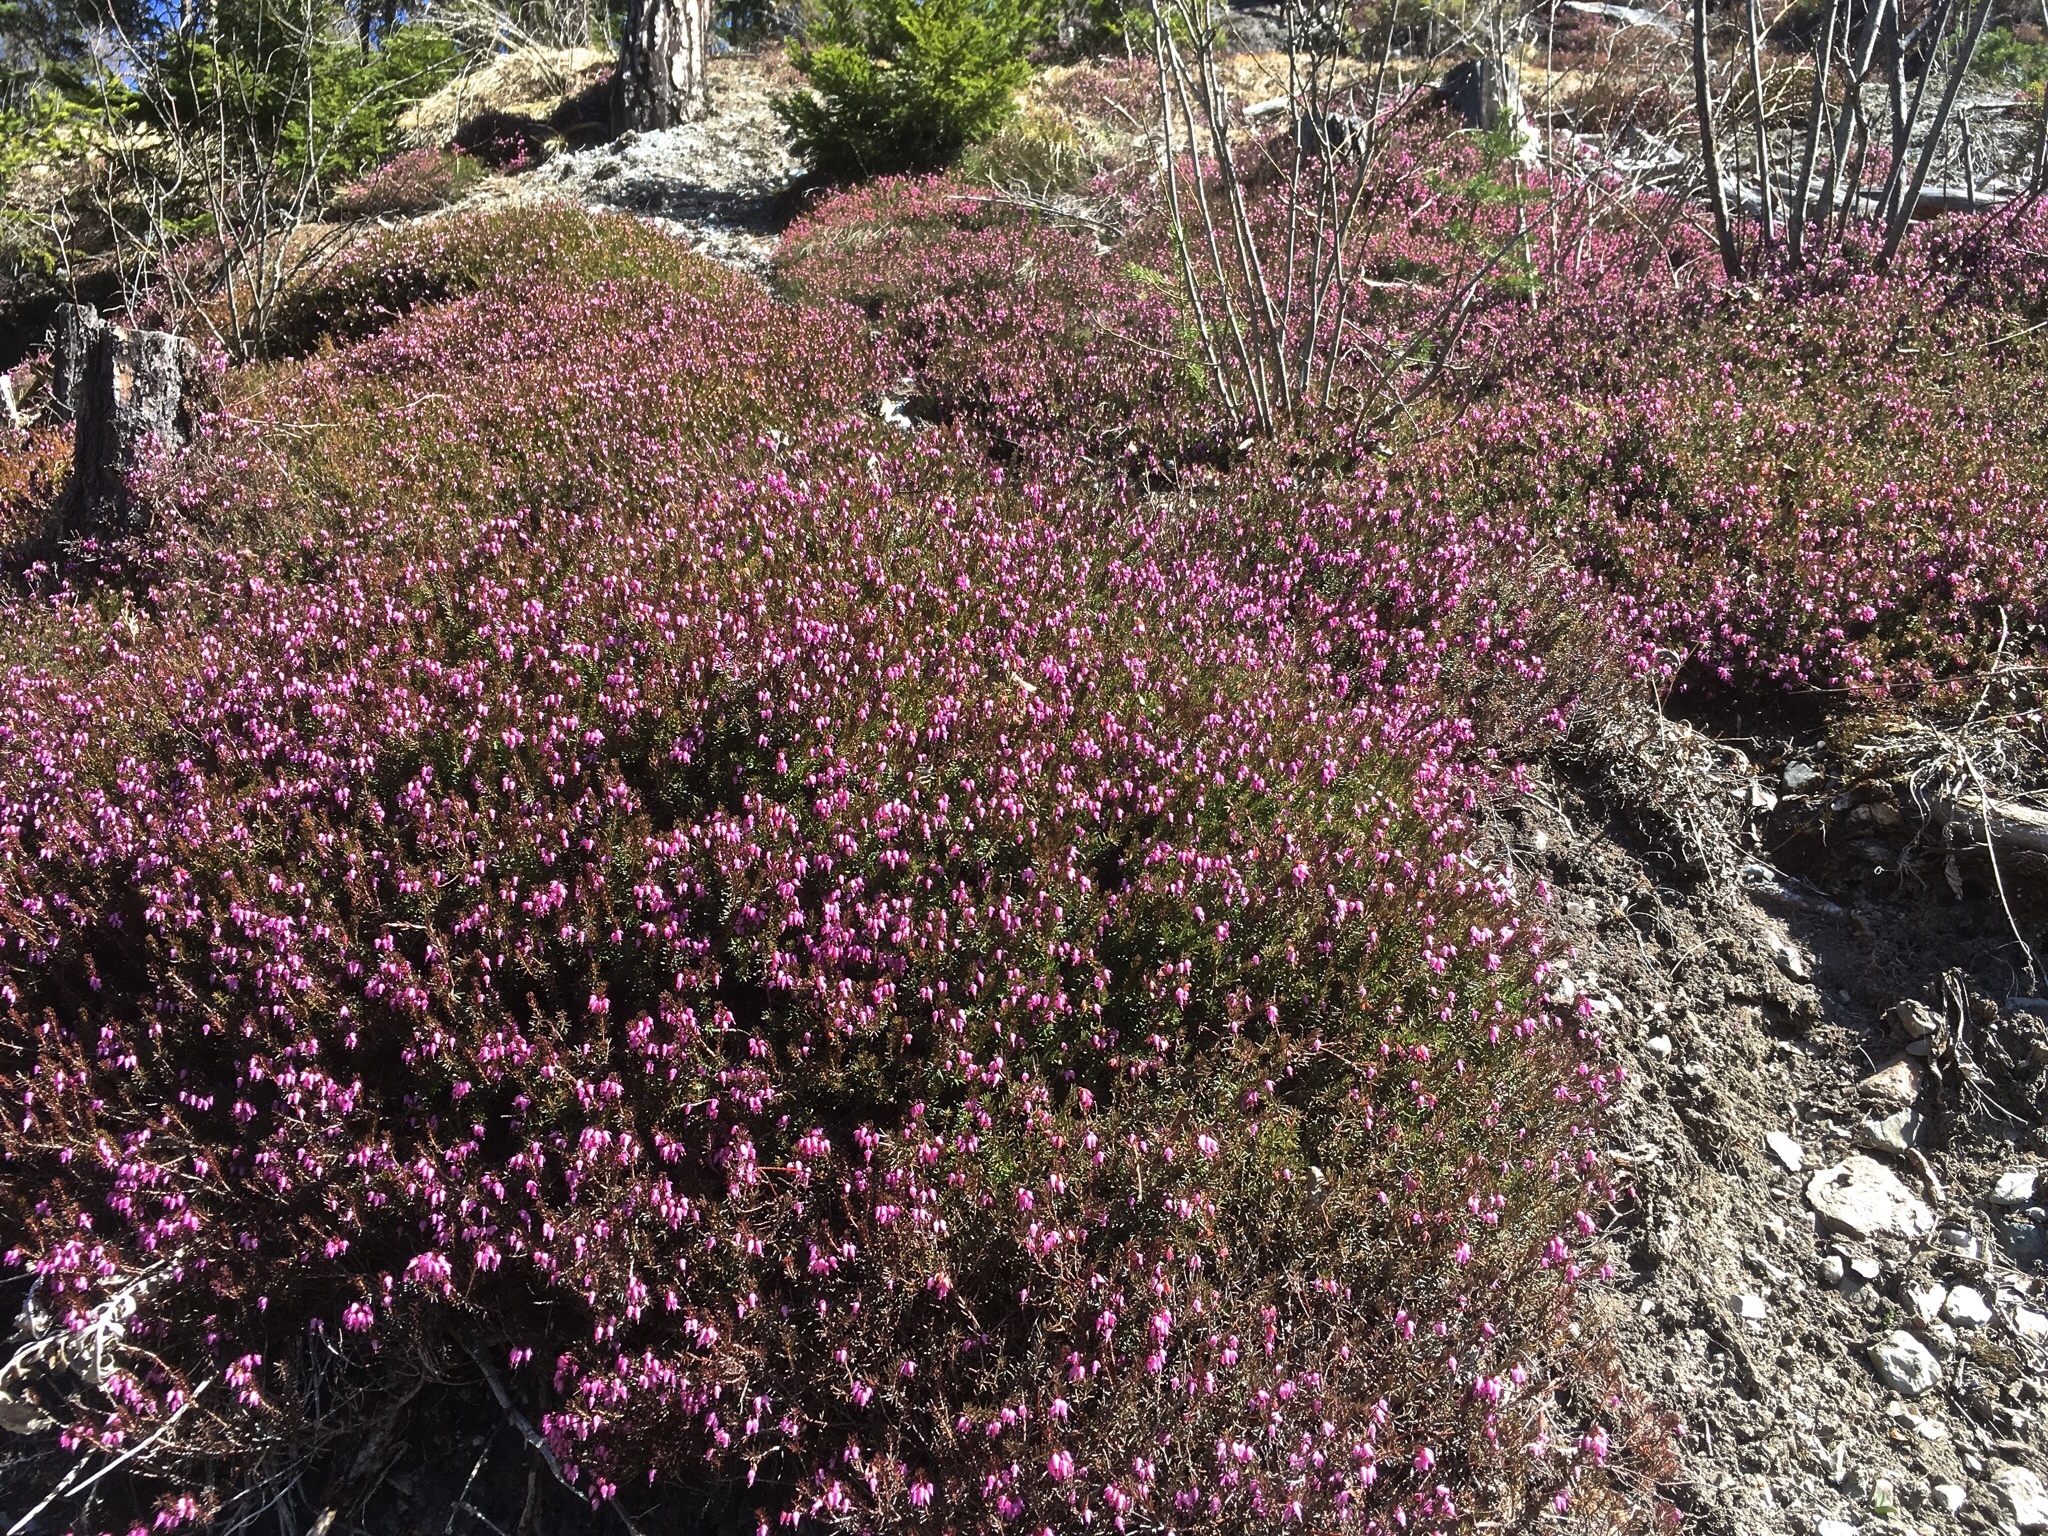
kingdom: Plantae
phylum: Tracheophyta
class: Magnoliopsida
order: Ericales
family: Ericaceae
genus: Erica
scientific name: Erica carnea
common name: Winter heath
